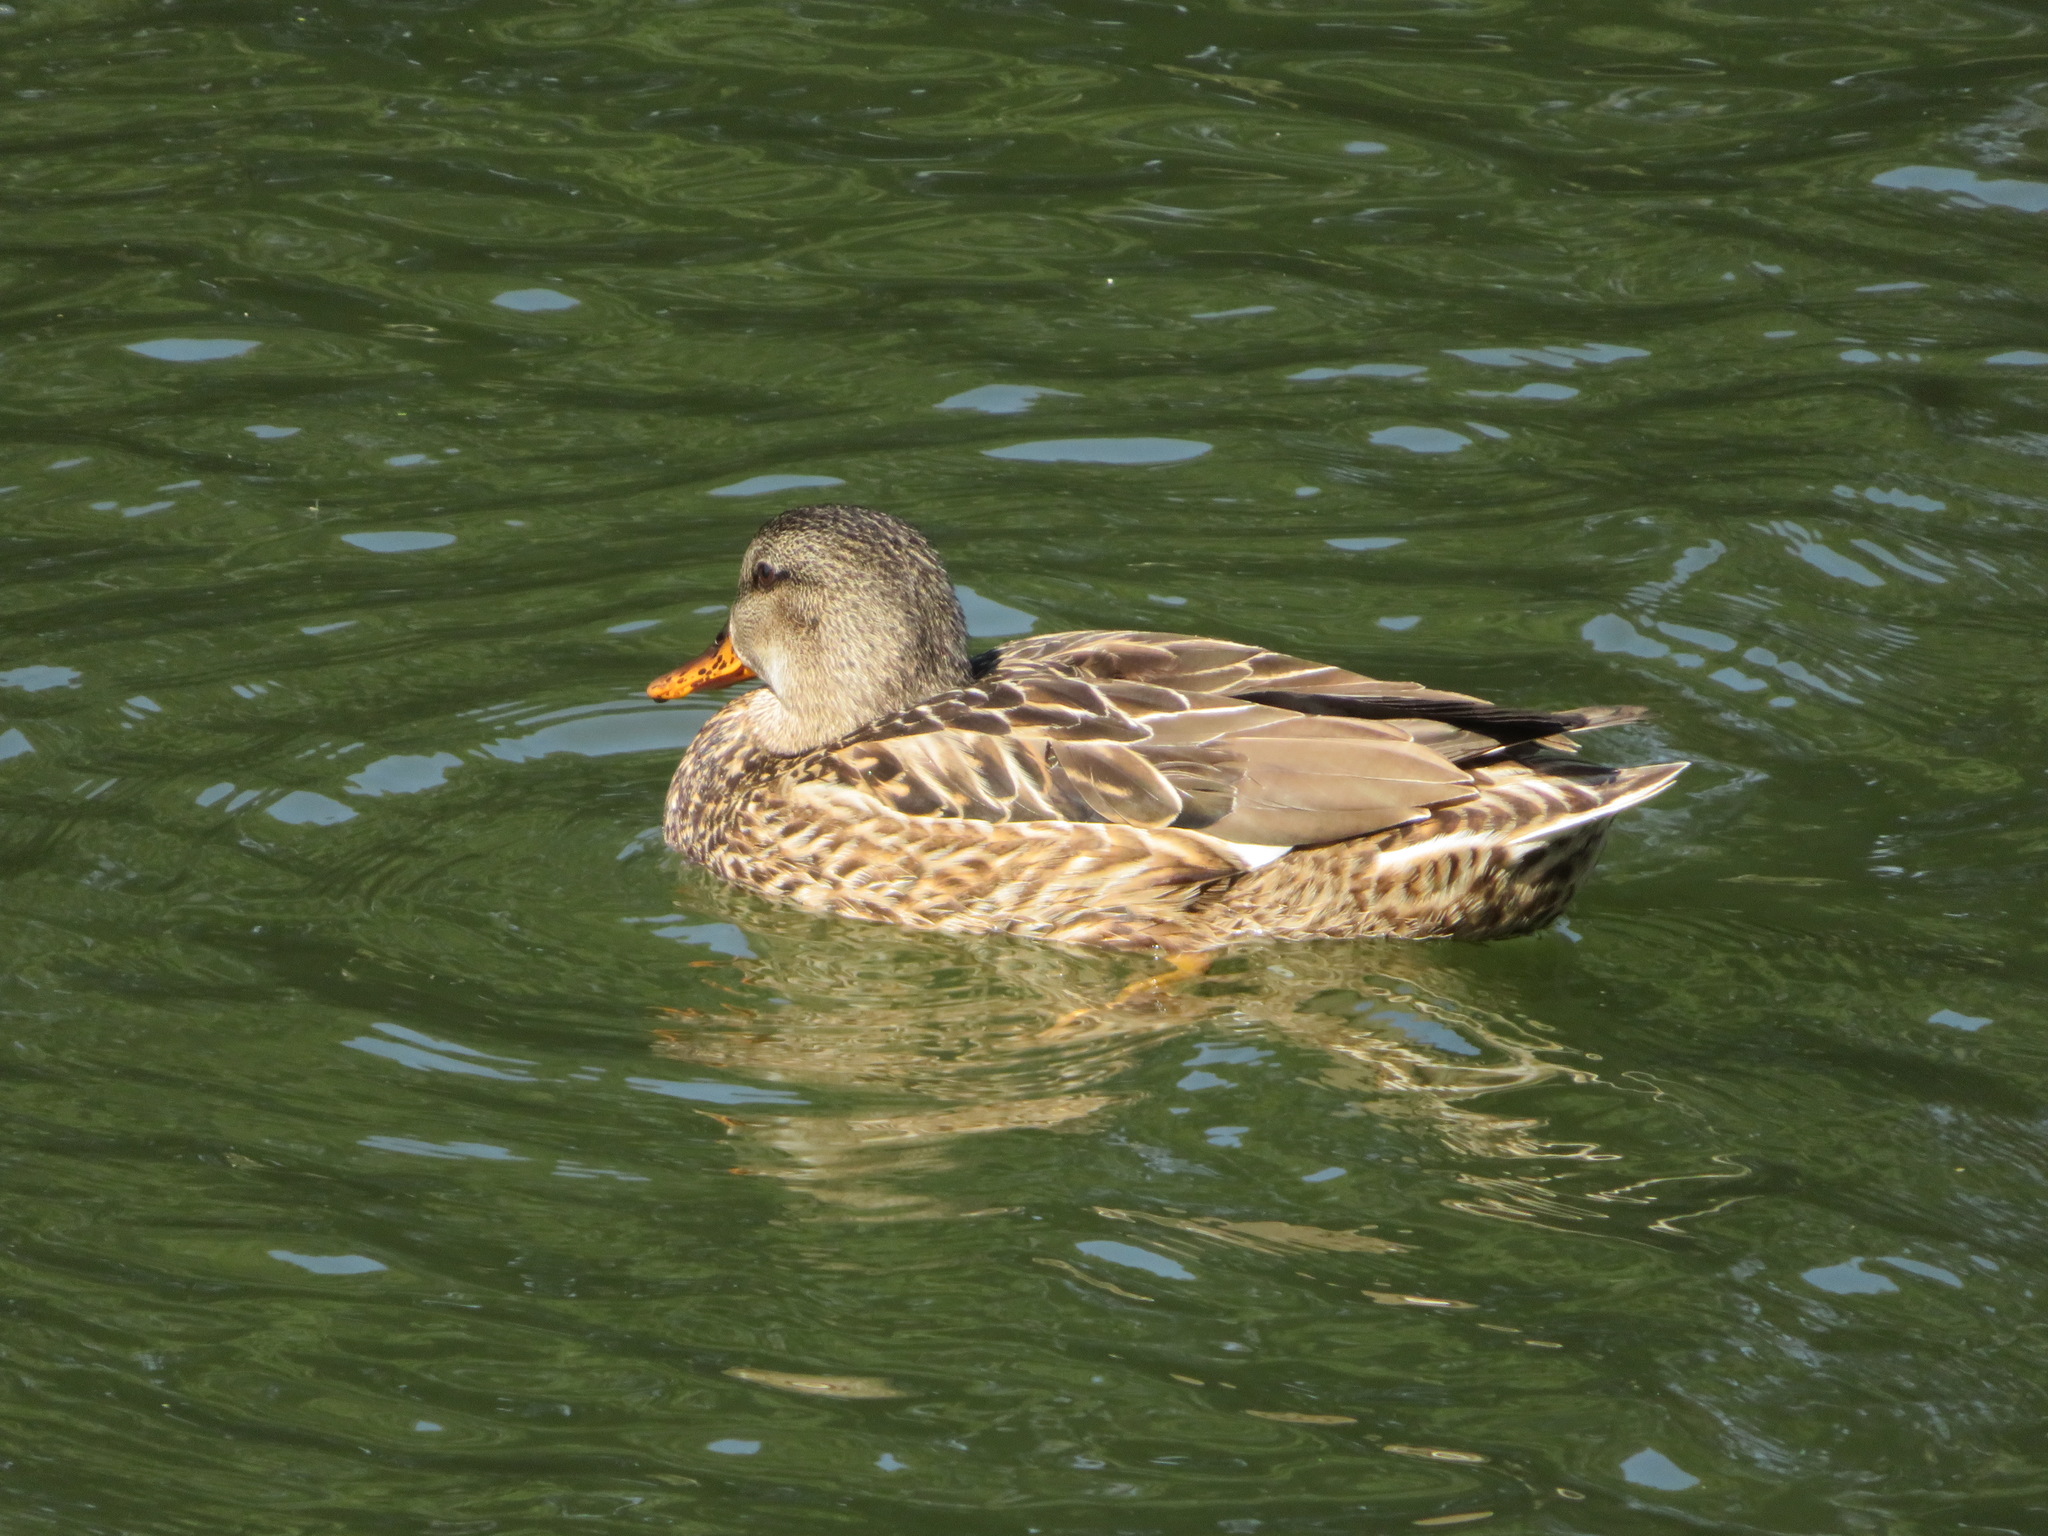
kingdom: Animalia
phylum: Chordata
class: Aves
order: Anseriformes
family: Anatidae
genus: Mareca
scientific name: Mareca strepera
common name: Gadwall
